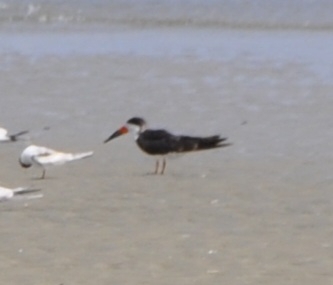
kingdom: Animalia
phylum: Chordata
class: Aves
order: Charadriiformes
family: Laridae
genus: Rynchops
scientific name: Rynchops niger
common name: Black skimmer
